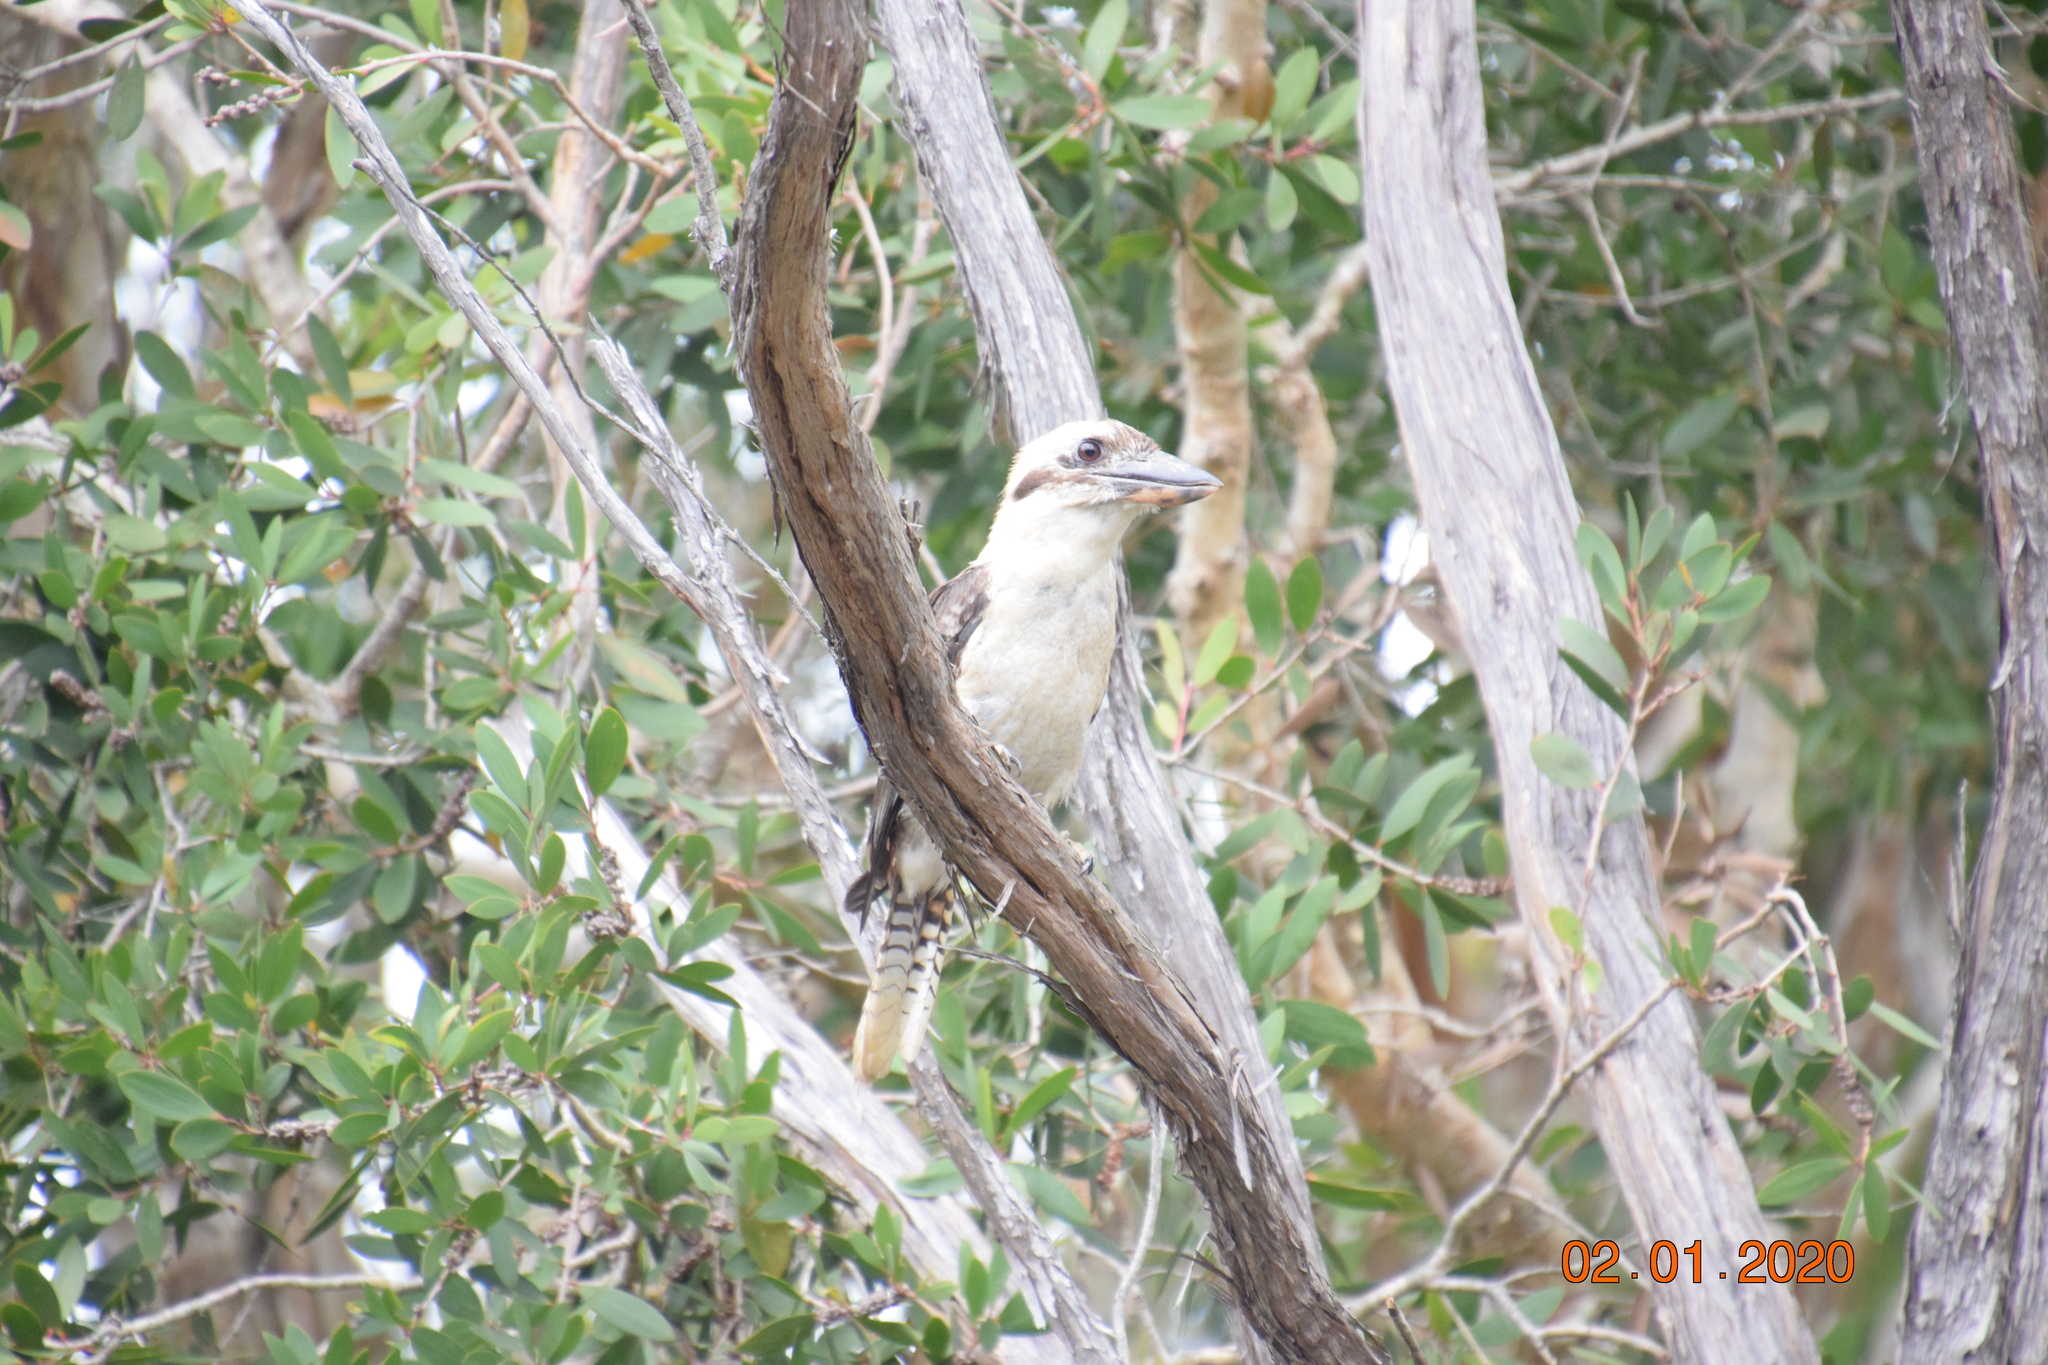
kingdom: Animalia
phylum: Chordata
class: Aves
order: Coraciiformes
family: Alcedinidae
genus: Dacelo
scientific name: Dacelo novaeguineae
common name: Laughing kookaburra
